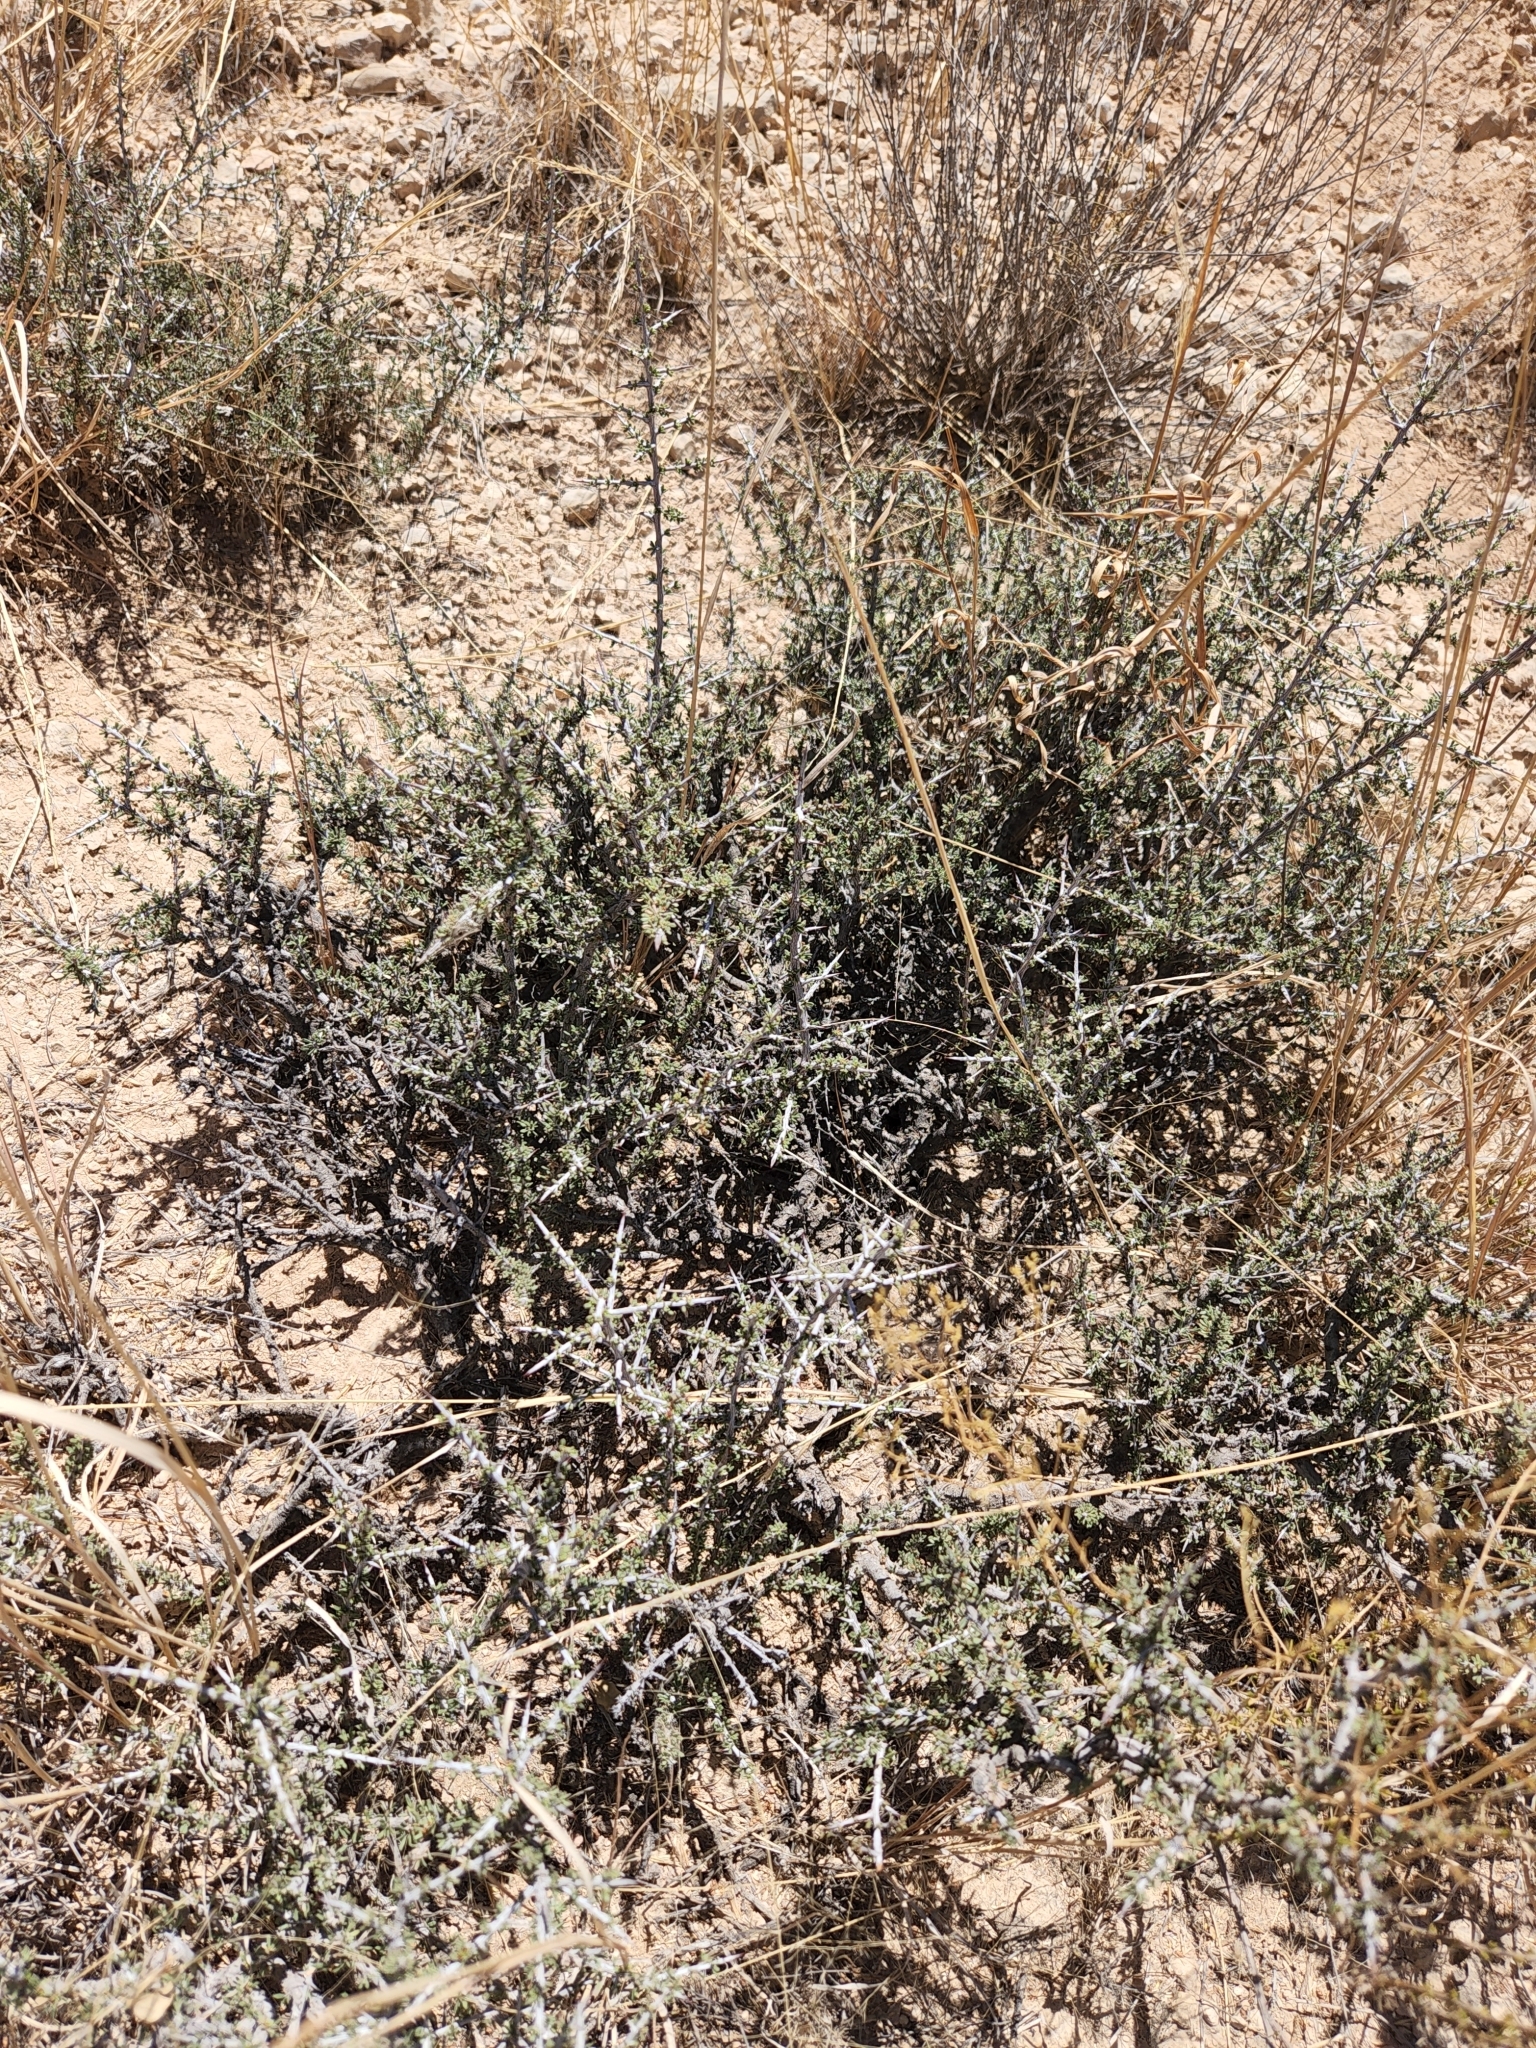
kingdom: Plantae
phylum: Tracheophyta
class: Magnoliopsida
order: Rosales
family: Rhamnaceae
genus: Condalia
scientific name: Condalia ericoides
